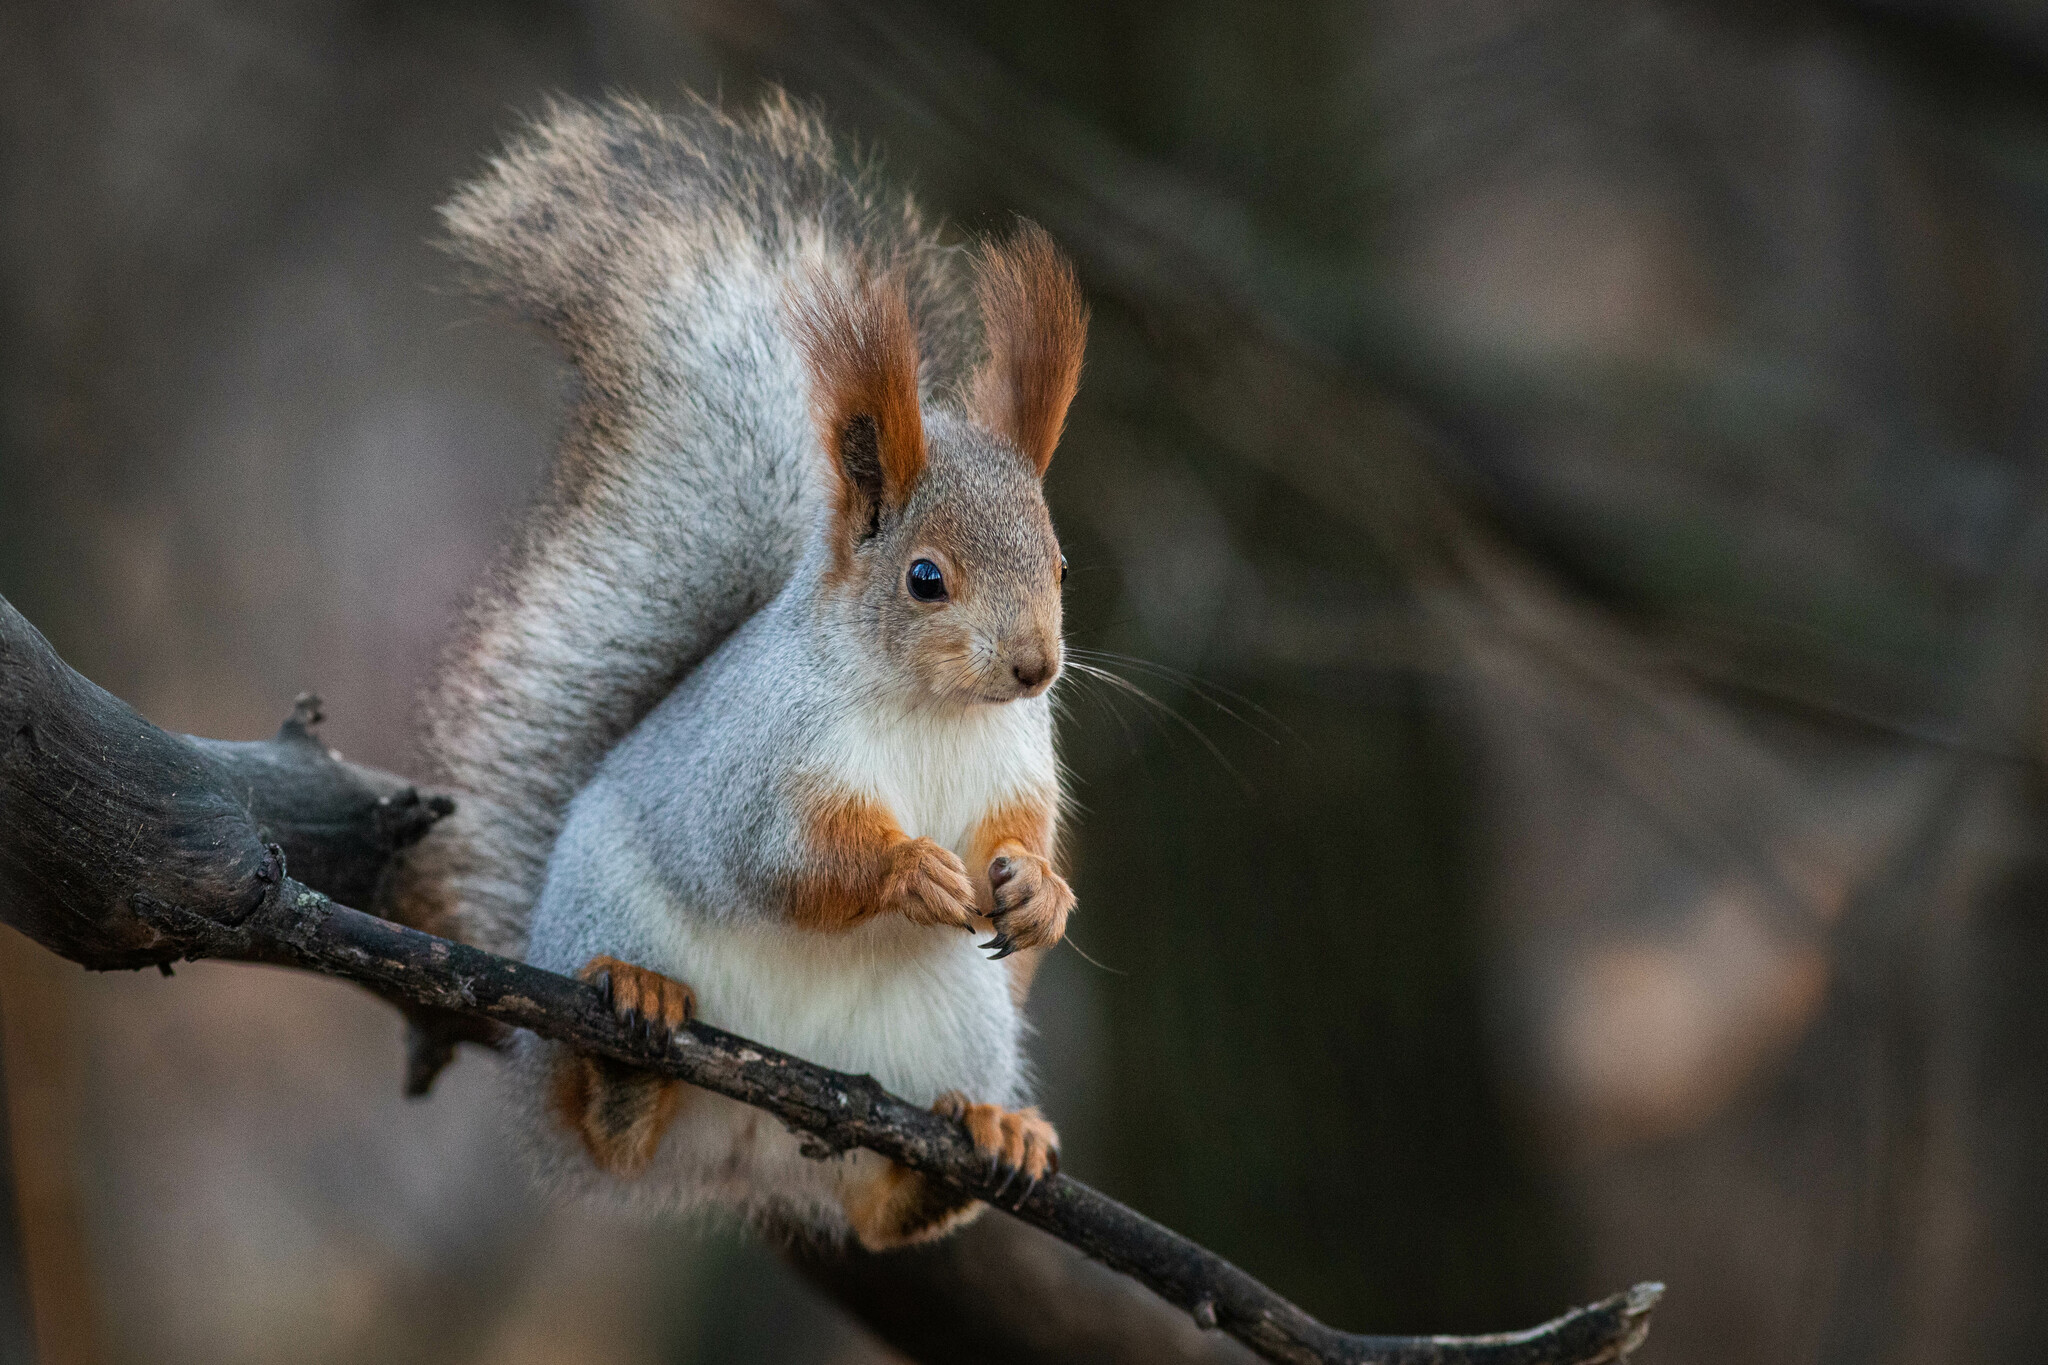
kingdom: Animalia
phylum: Chordata
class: Mammalia
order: Rodentia
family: Sciuridae
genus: Sciurus
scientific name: Sciurus vulgaris
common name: Eurasian red squirrel
